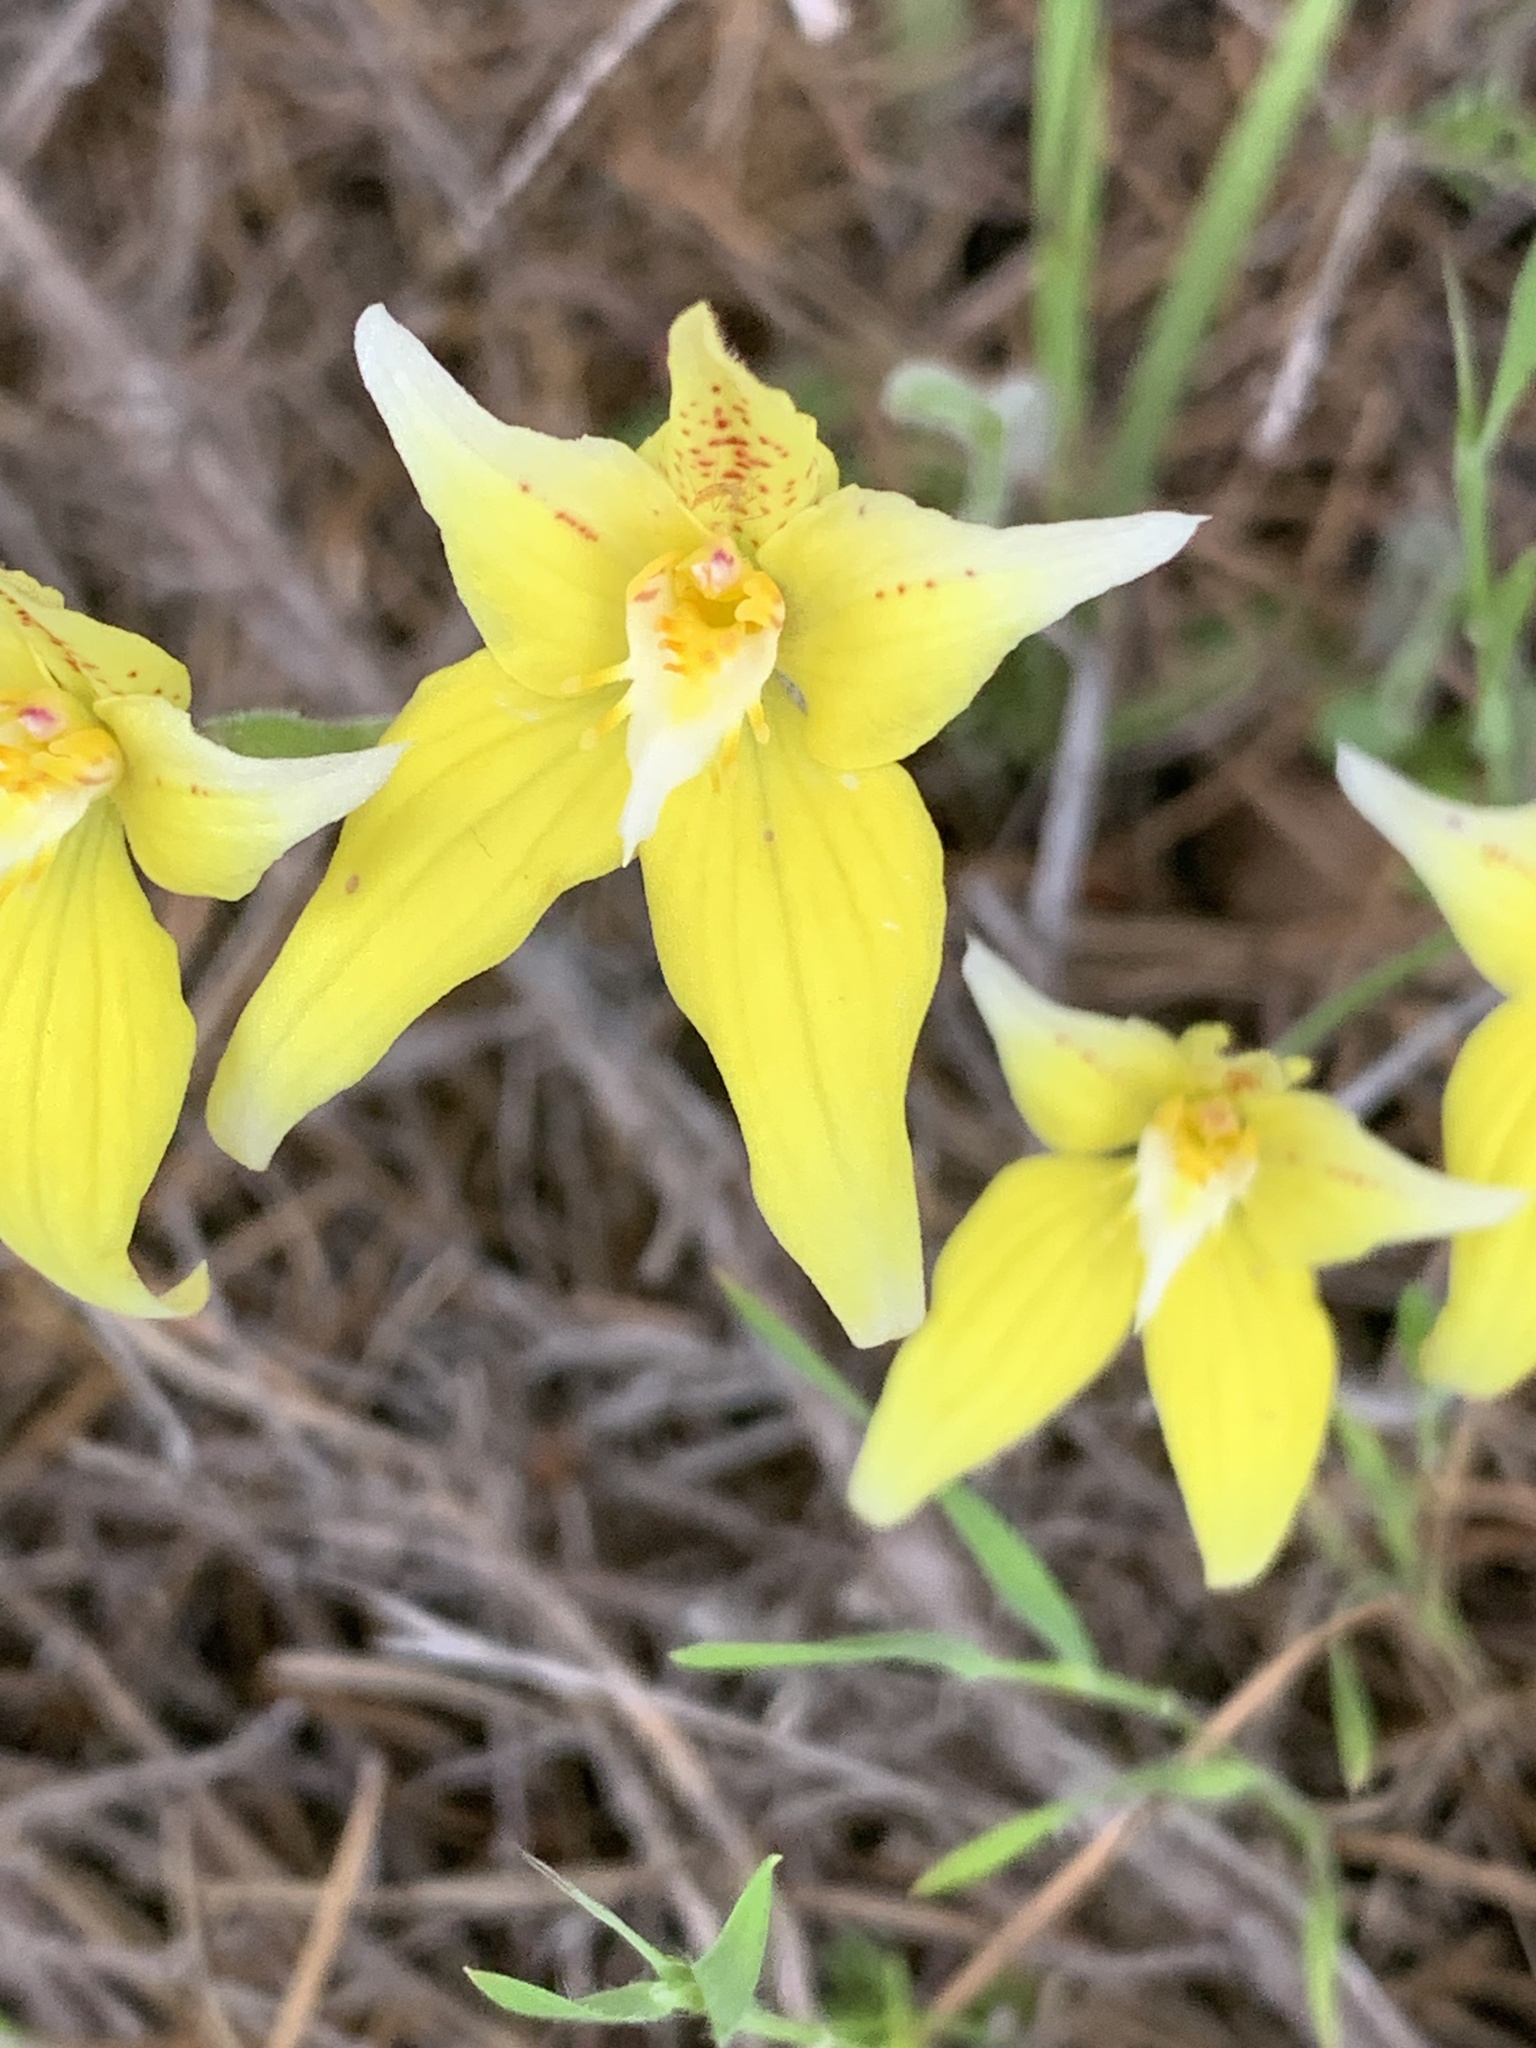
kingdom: Plantae
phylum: Tracheophyta
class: Liliopsida
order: Asparagales
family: Orchidaceae
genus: Caladenia
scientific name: Caladenia flava
